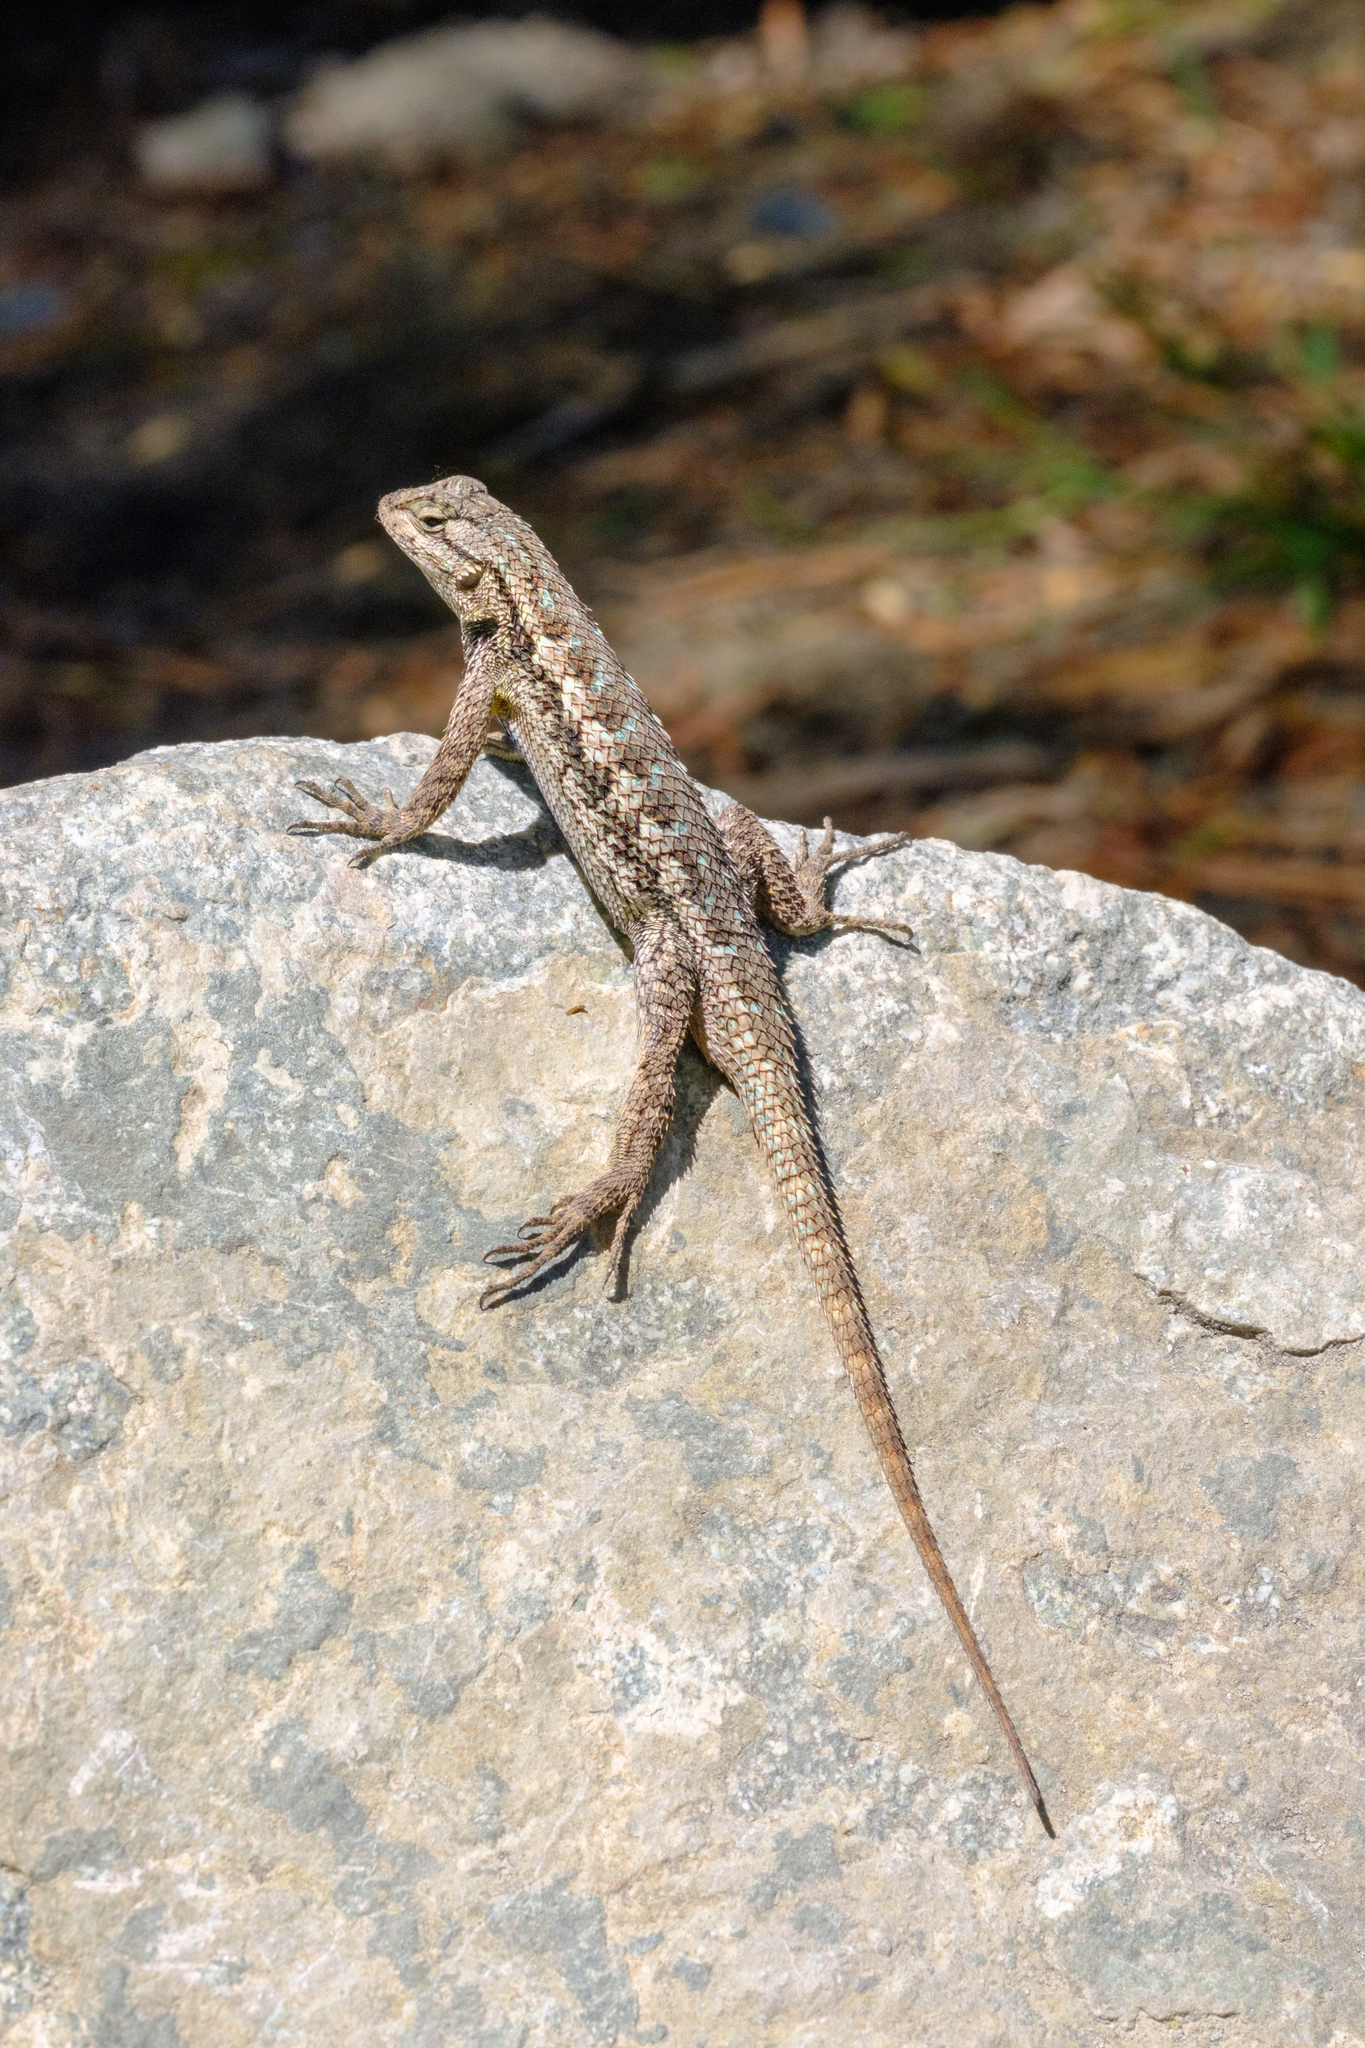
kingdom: Animalia
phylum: Chordata
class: Squamata
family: Phrynosomatidae
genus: Sceloporus
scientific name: Sceloporus occidentalis
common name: Western fence lizard
